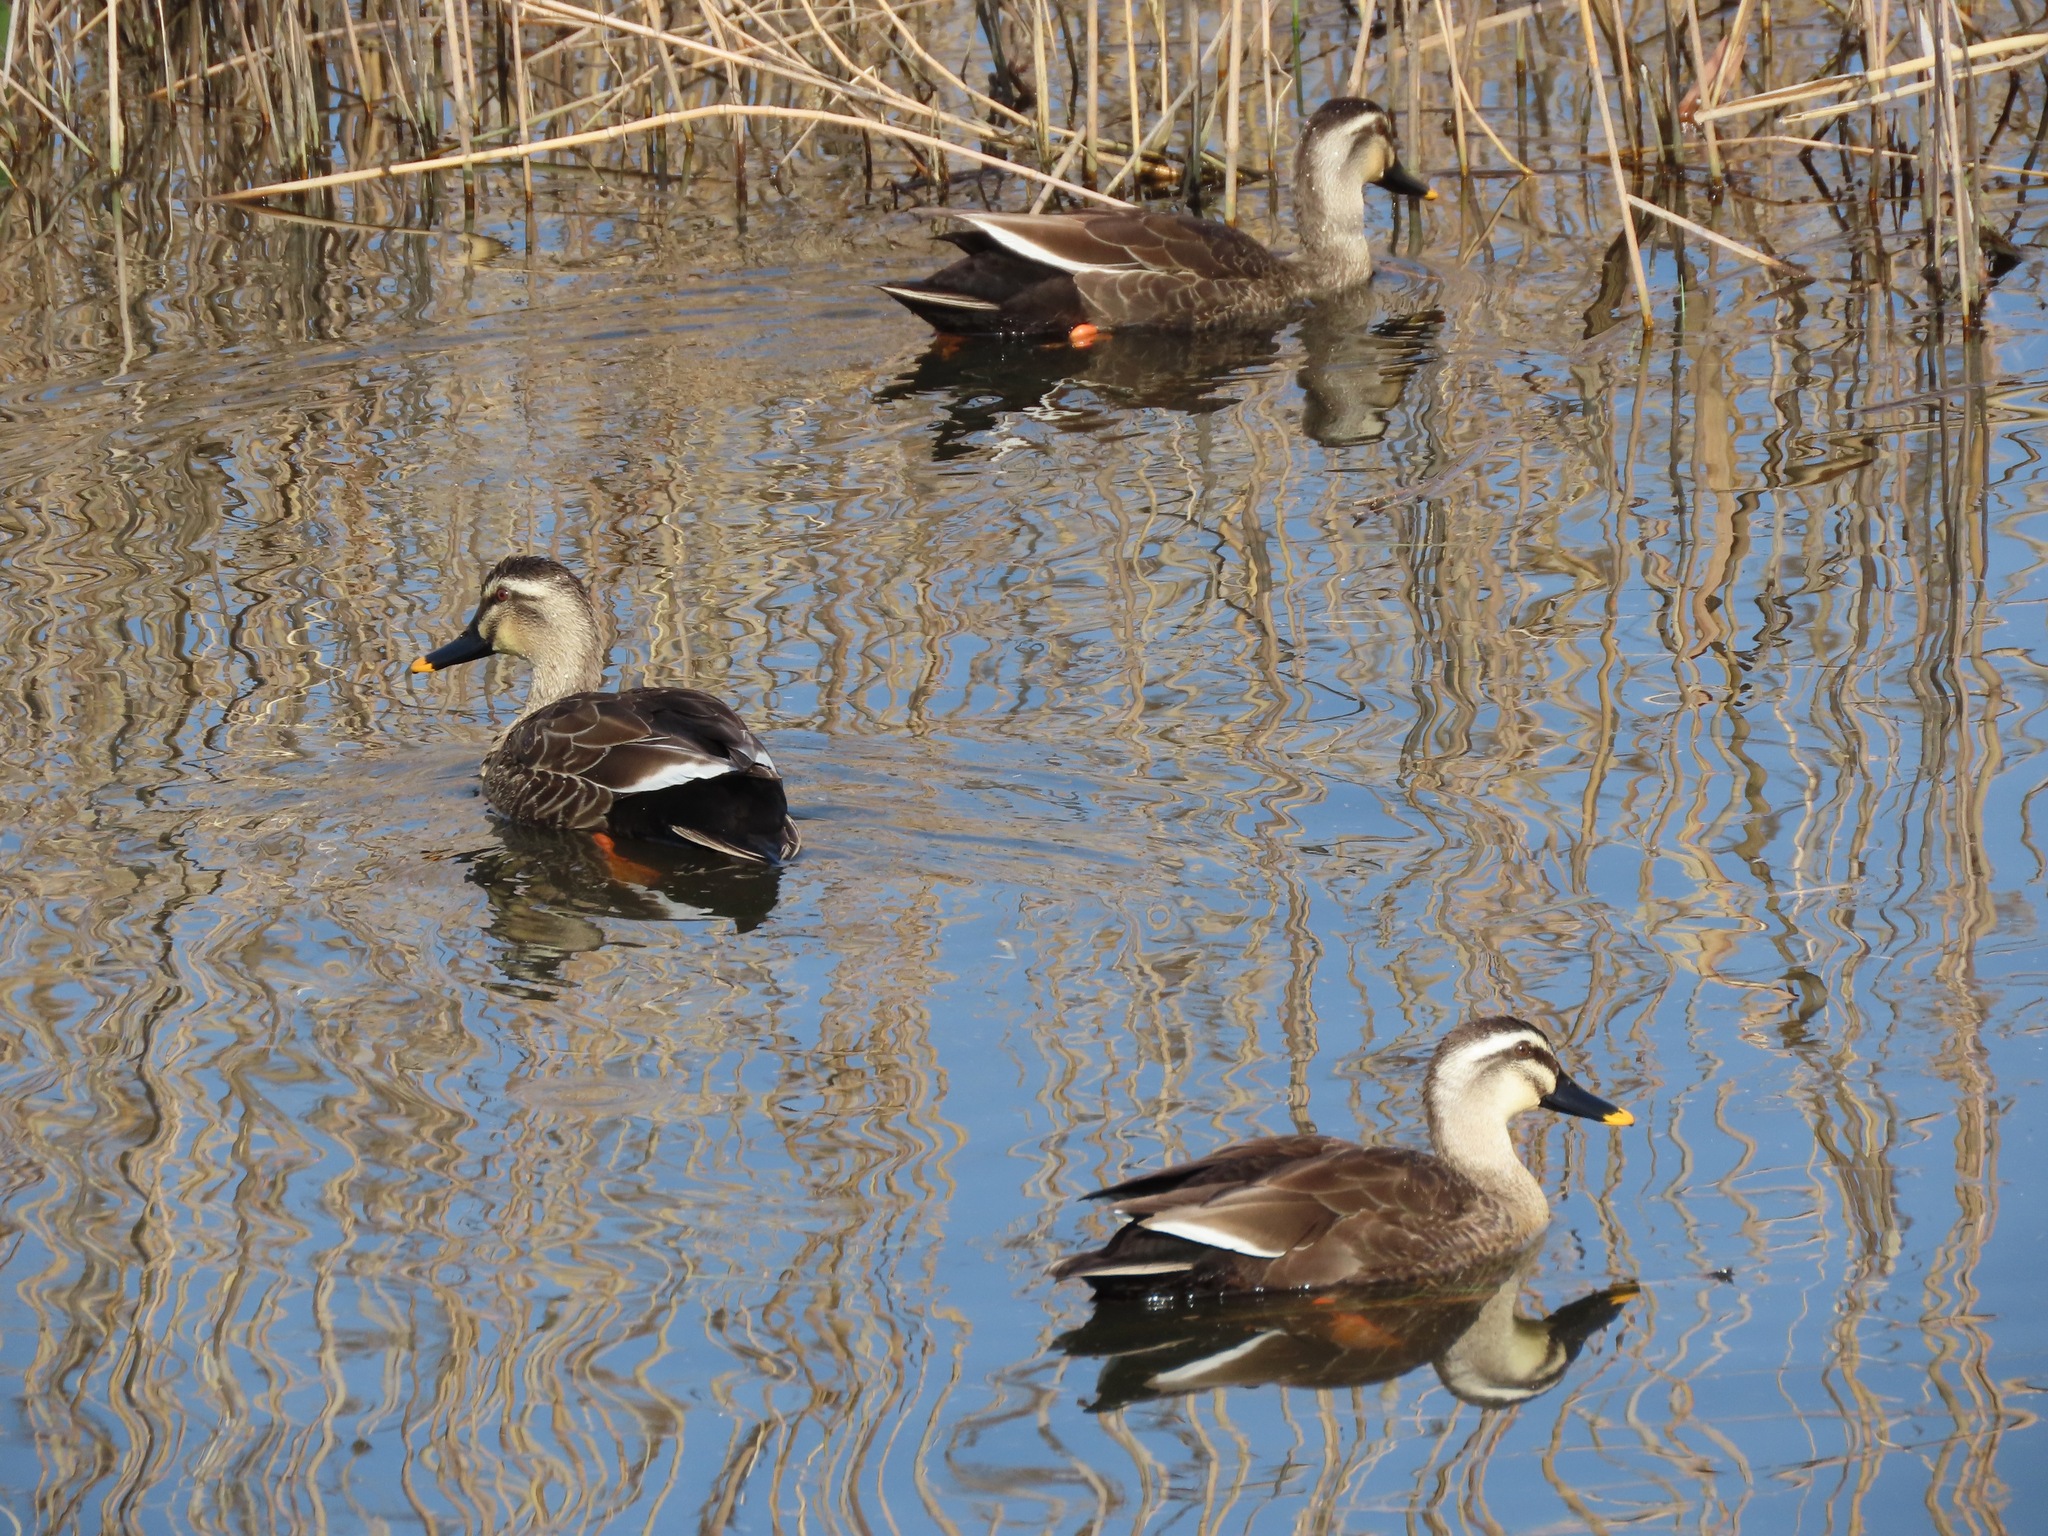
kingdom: Animalia
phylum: Chordata
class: Aves
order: Anseriformes
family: Anatidae
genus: Anas
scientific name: Anas zonorhyncha
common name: Eastern spot-billed duck
